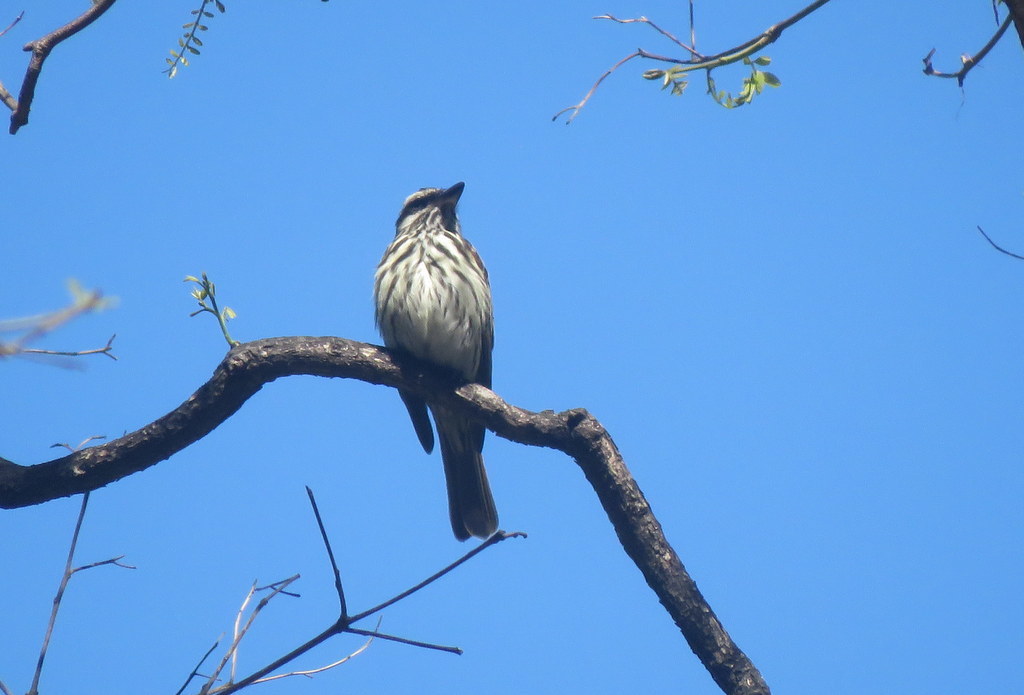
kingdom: Animalia
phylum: Chordata
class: Aves
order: Passeriformes
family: Tyrannidae
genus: Myiodynastes
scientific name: Myiodynastes maculatus
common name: Streaked flycatcher
